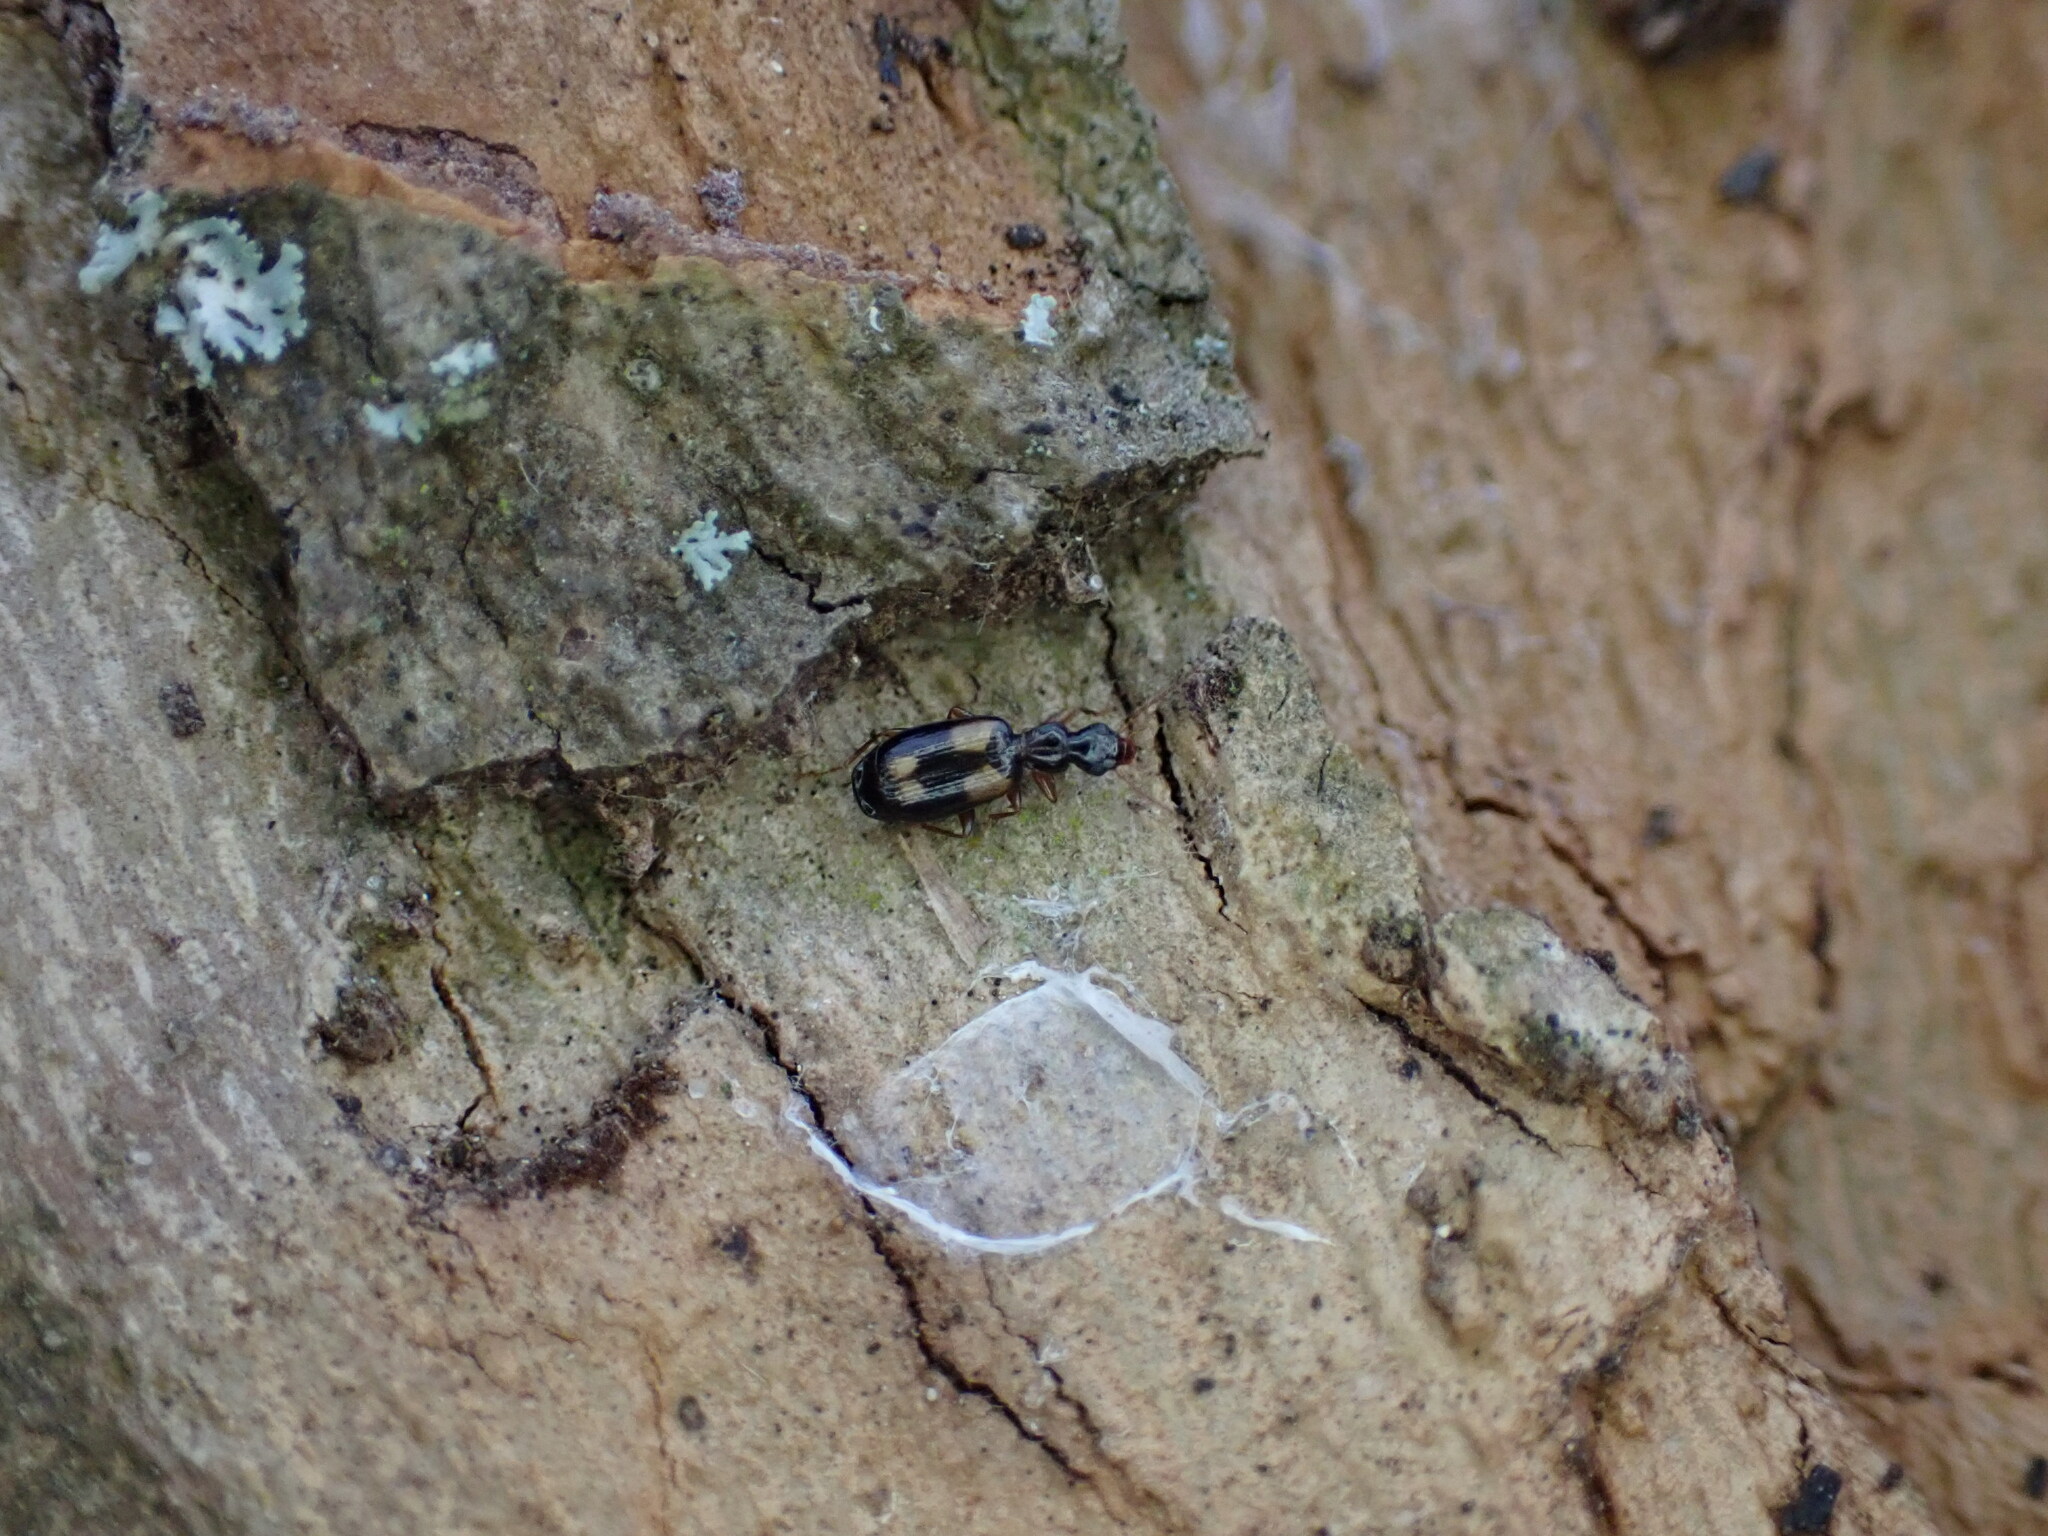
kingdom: Animalia
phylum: Arthropoda
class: Insecta
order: Coleoptera
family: Carabidae
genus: Calodromius
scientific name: Calodromius spilotus
